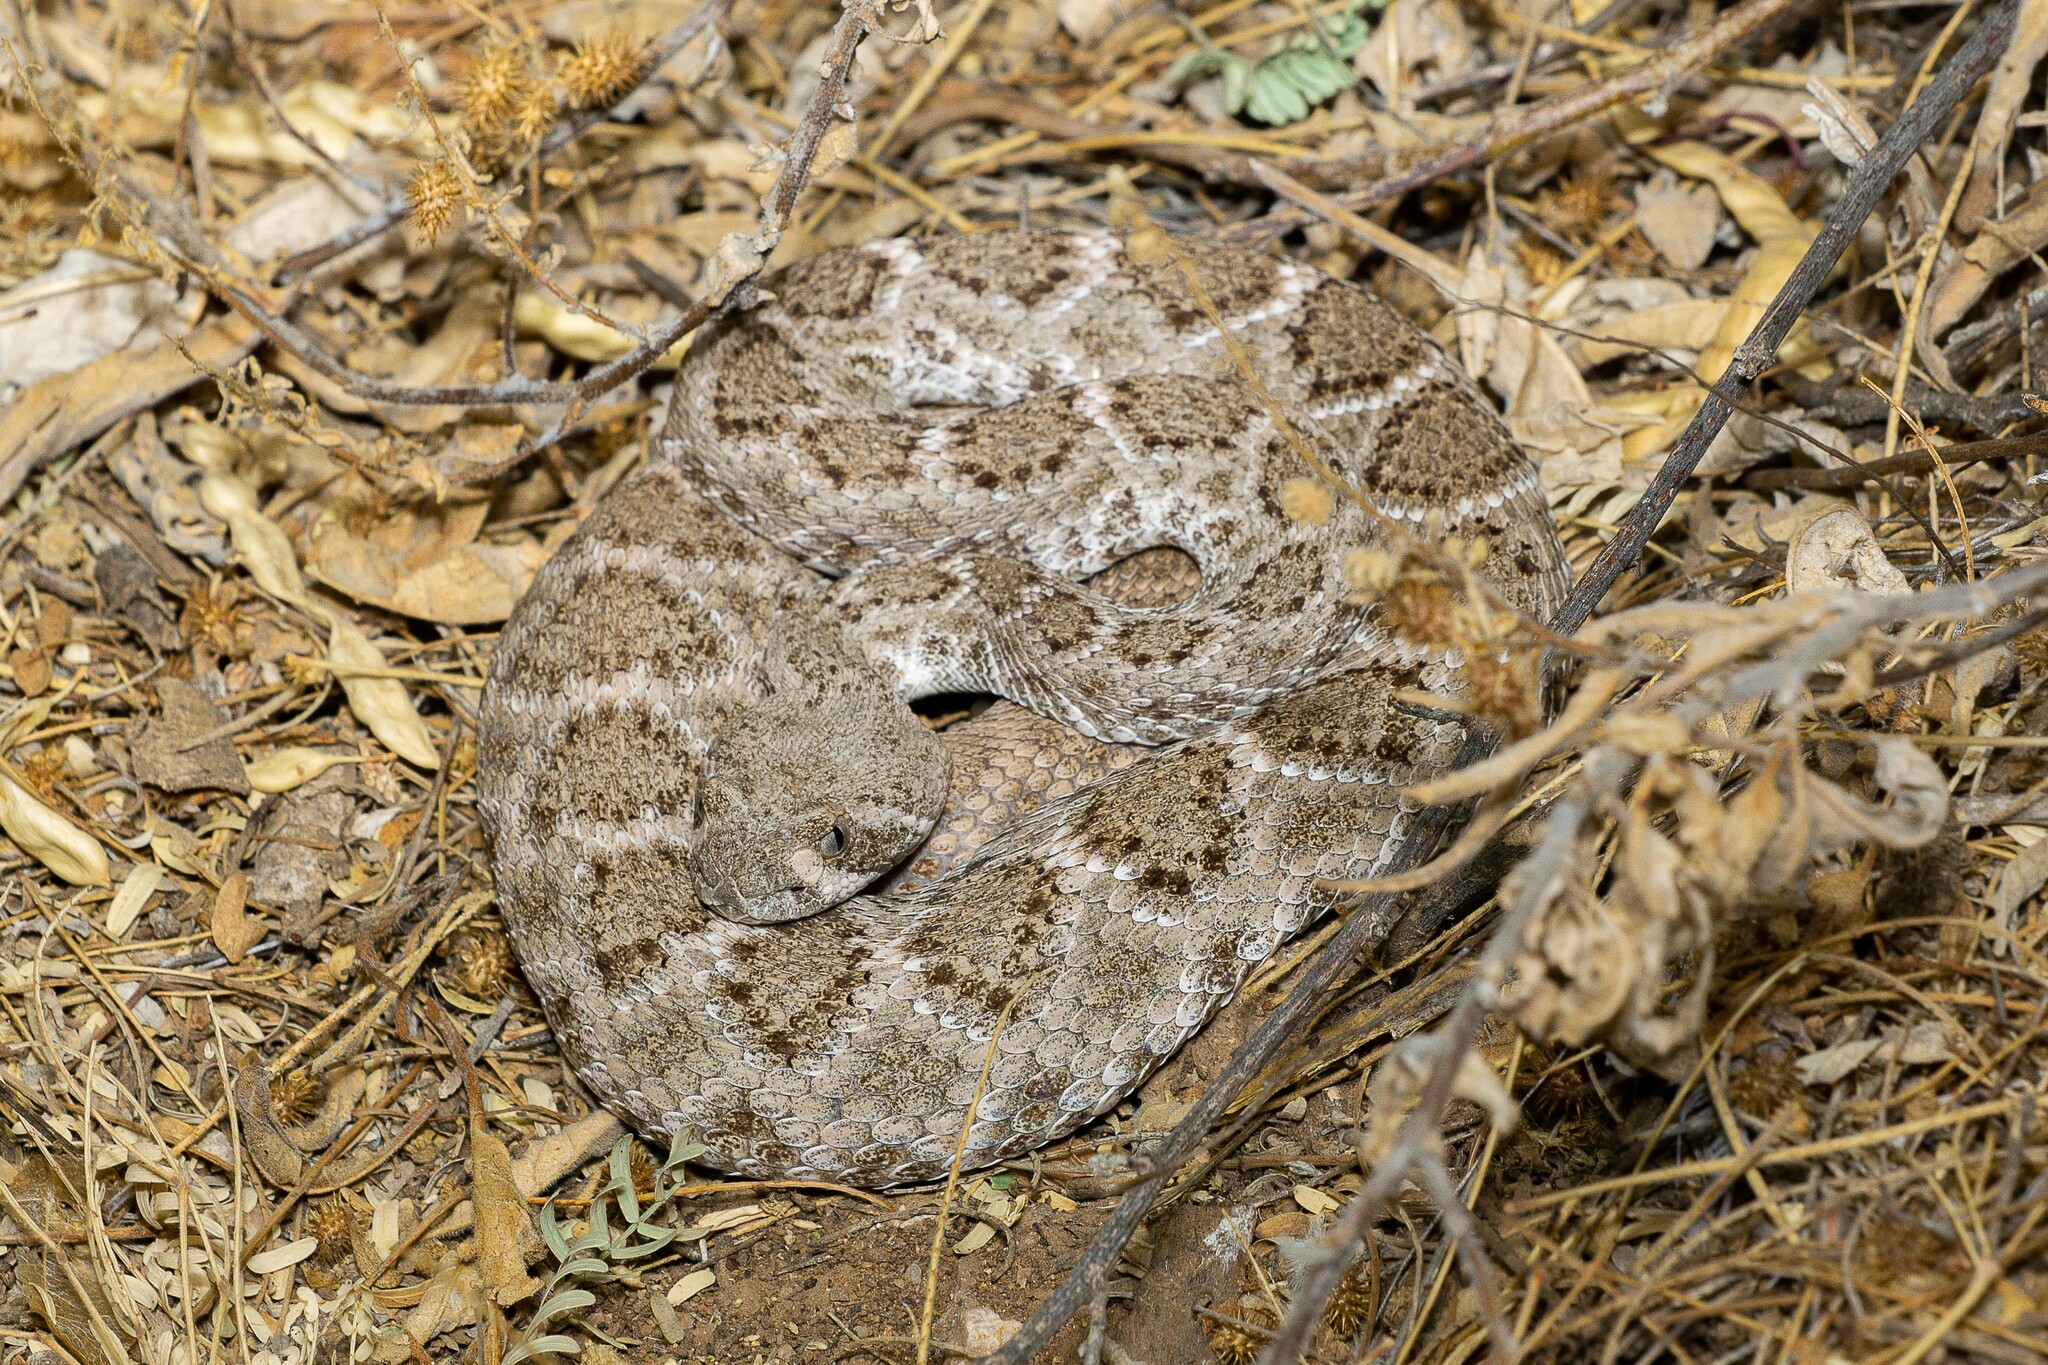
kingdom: Animalia
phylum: Chordata
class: Squamata
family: Viperidae
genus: Crotalus
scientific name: Crotalus atrox
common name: Western diamond-backed rattlesnake
